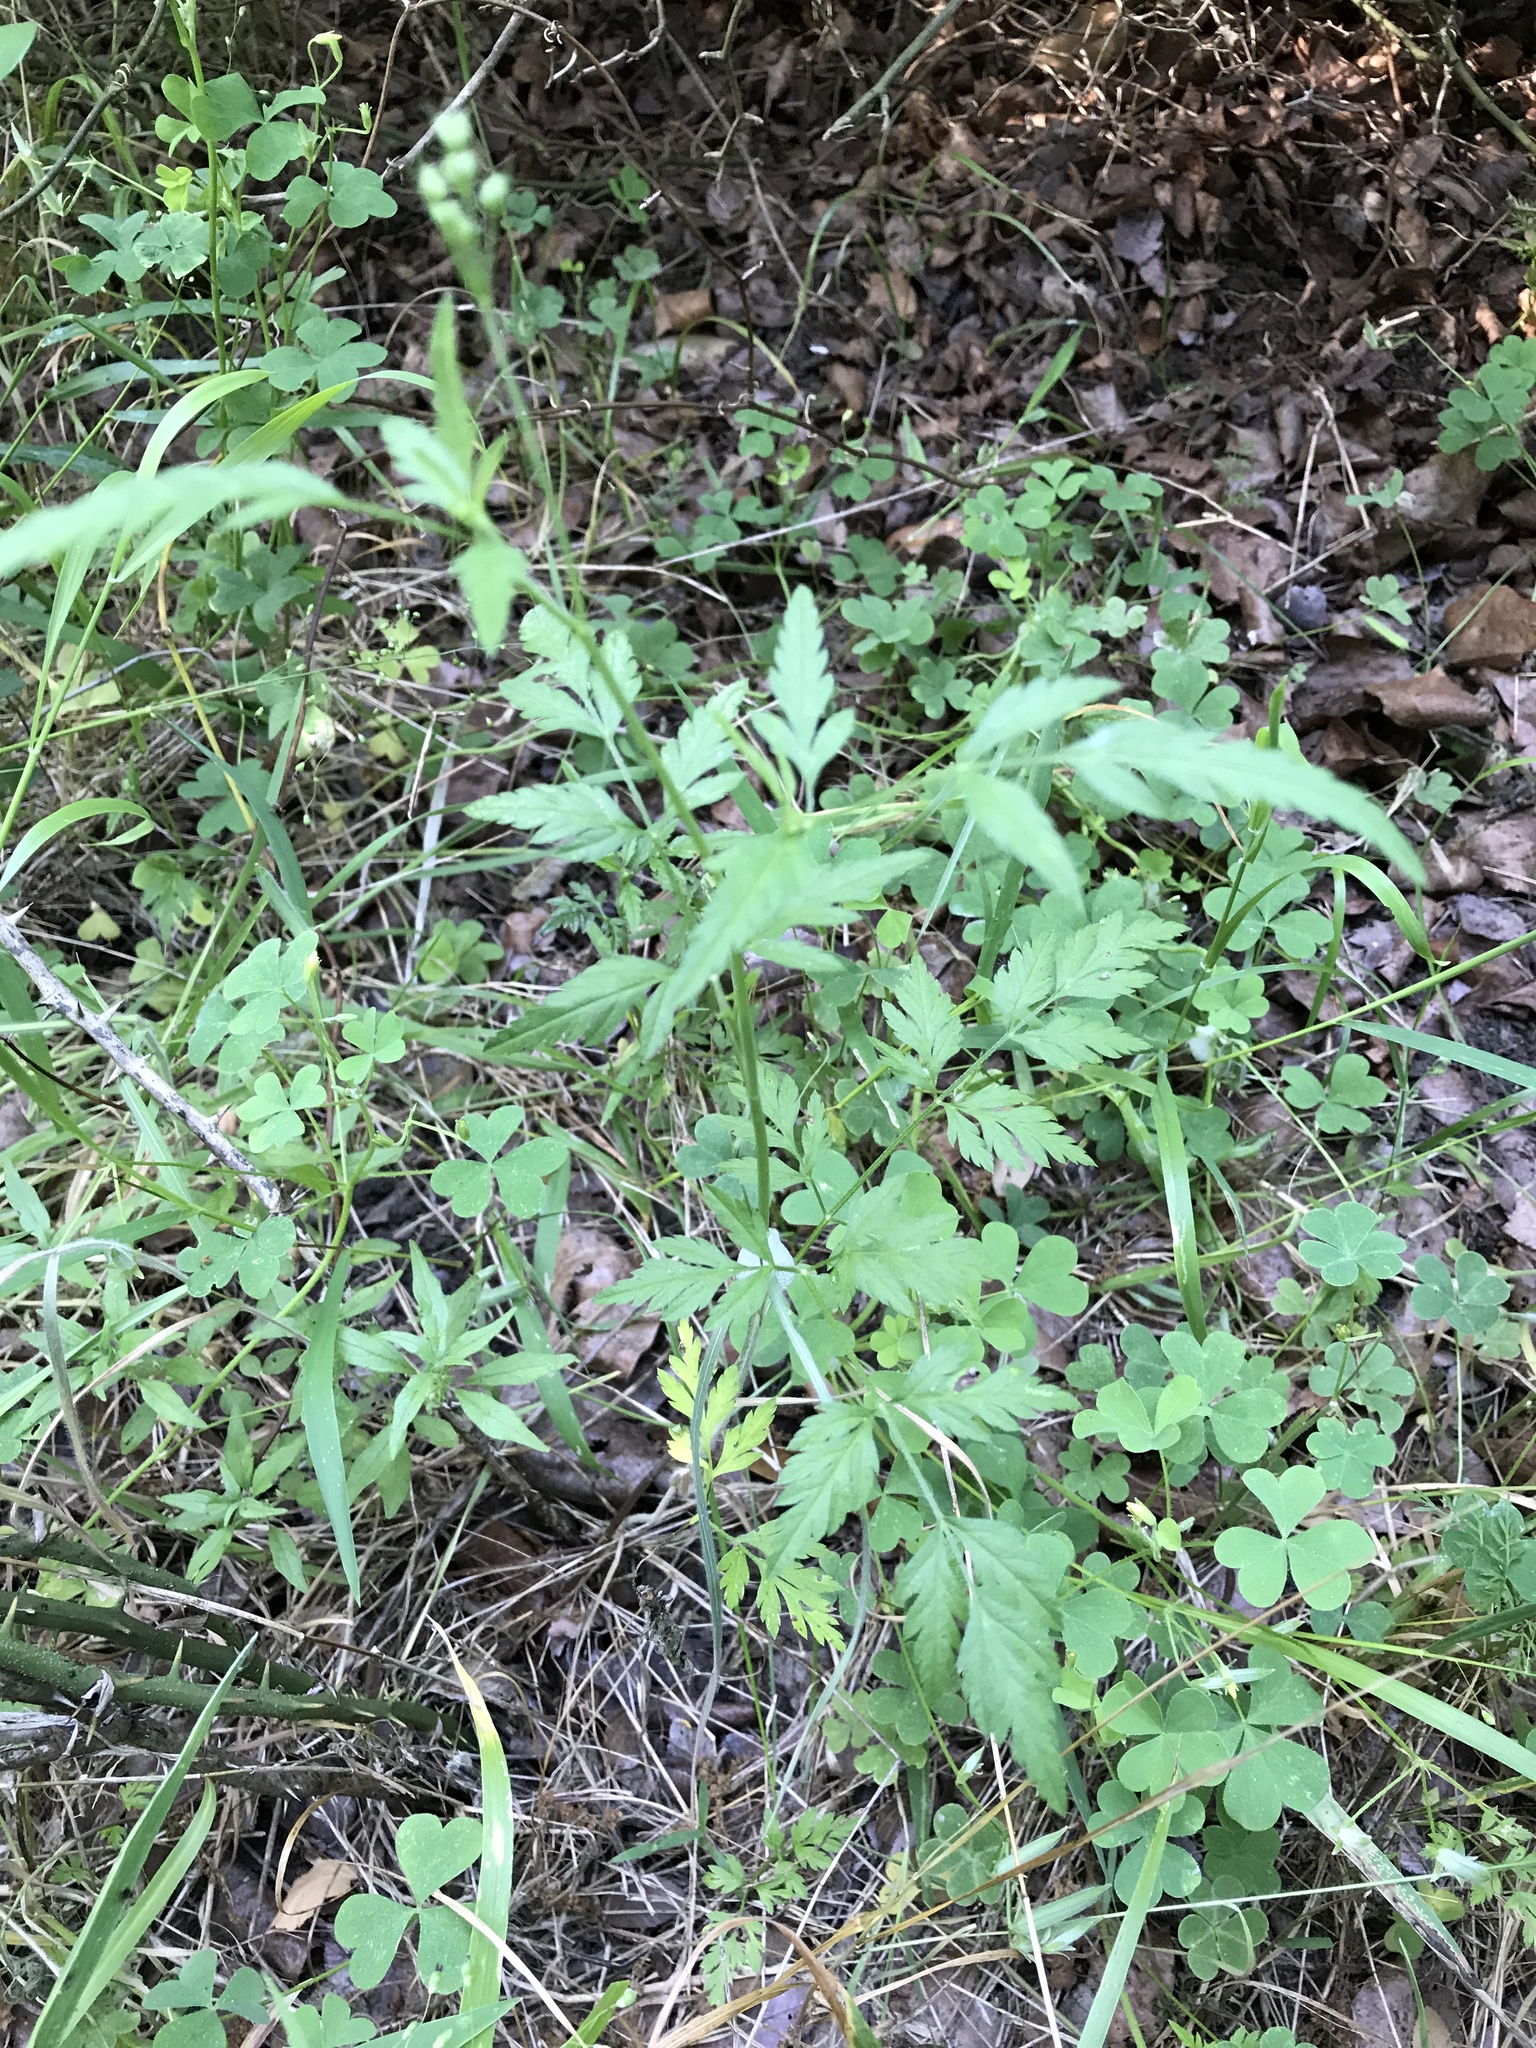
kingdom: Plantae
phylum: Tracheophyta
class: Magnoliopsida
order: Apiales
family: Apiaceae
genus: Torilis
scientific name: Torilis arvensis
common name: Spreading hedge-parsley
